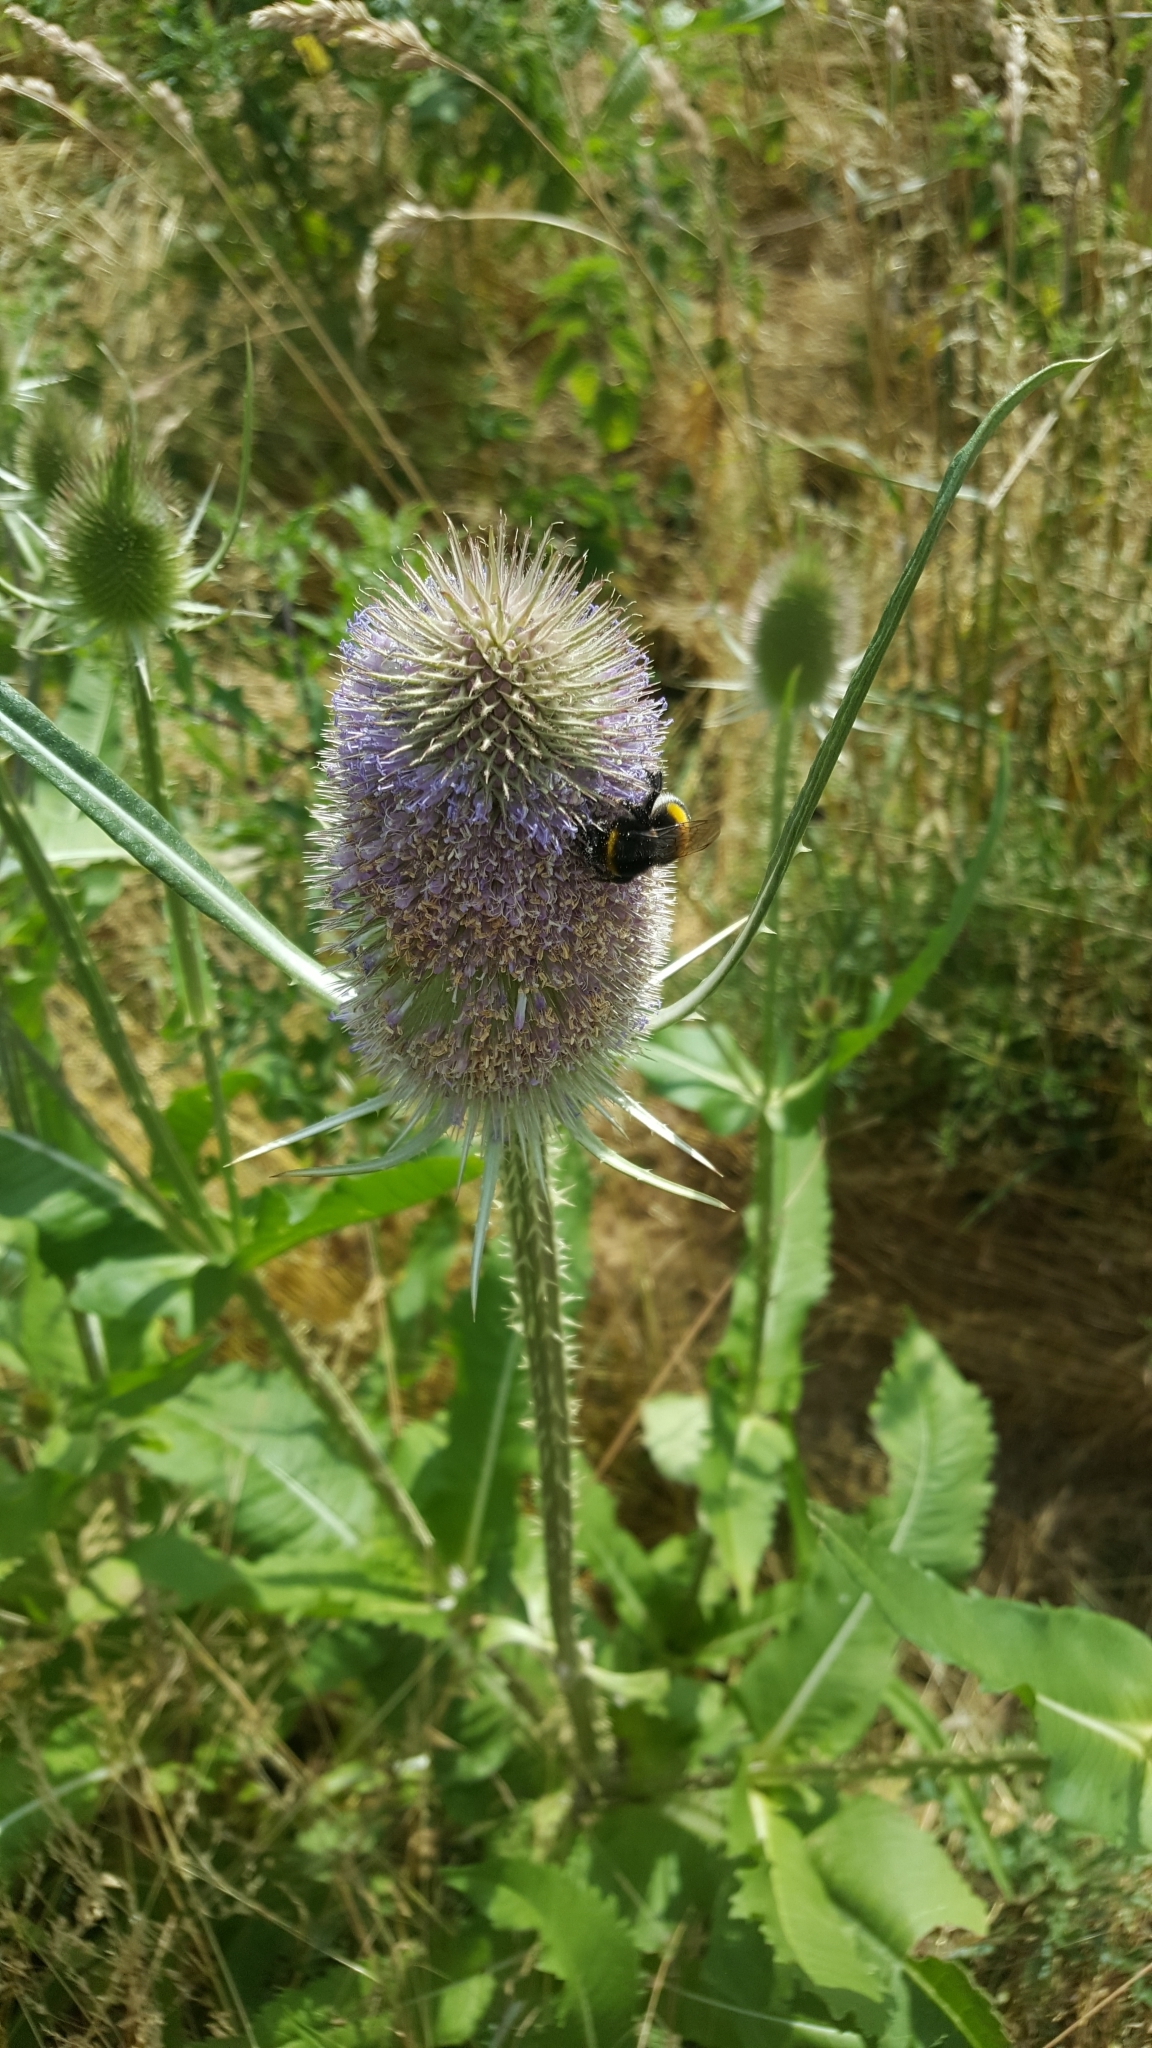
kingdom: Plantae
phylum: Tracheophyta
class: Magnoliopsida
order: Dipsacales
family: Caprifoliaceae
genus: Dipsacus
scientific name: Dipsacus fullonum
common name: Teasel
